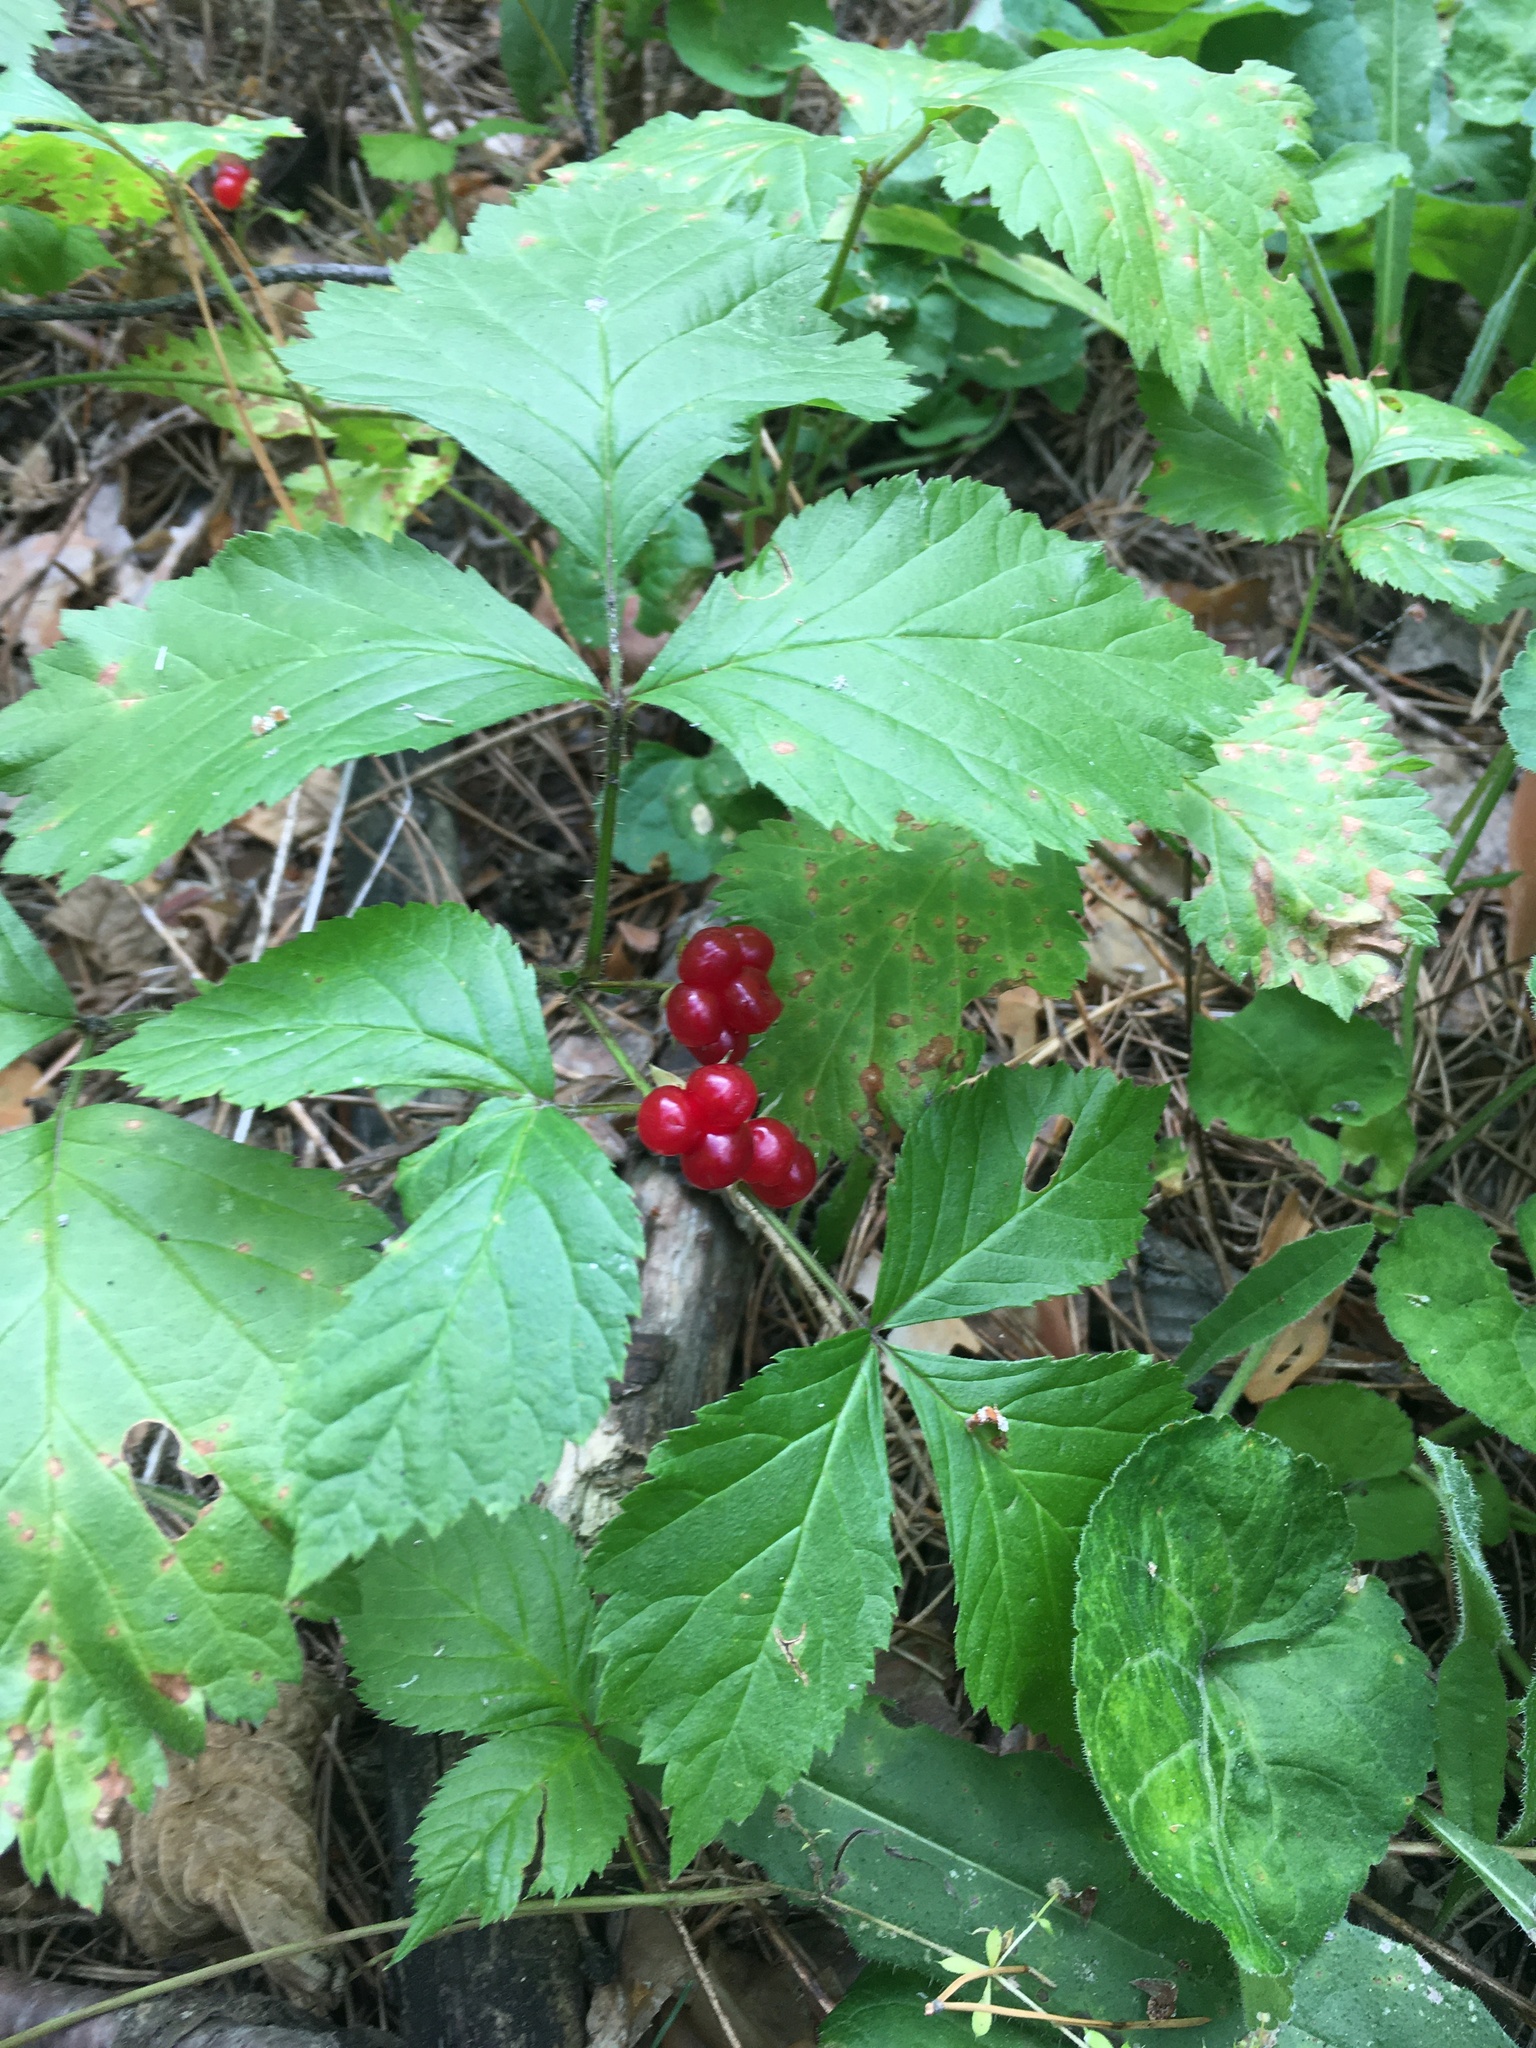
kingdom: Plantae
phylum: Tracheophyta
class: Magnoliopsida
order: Rosales
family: Rosaceae
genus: Rubus
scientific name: Rubus saxatilis
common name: Stone bramble
